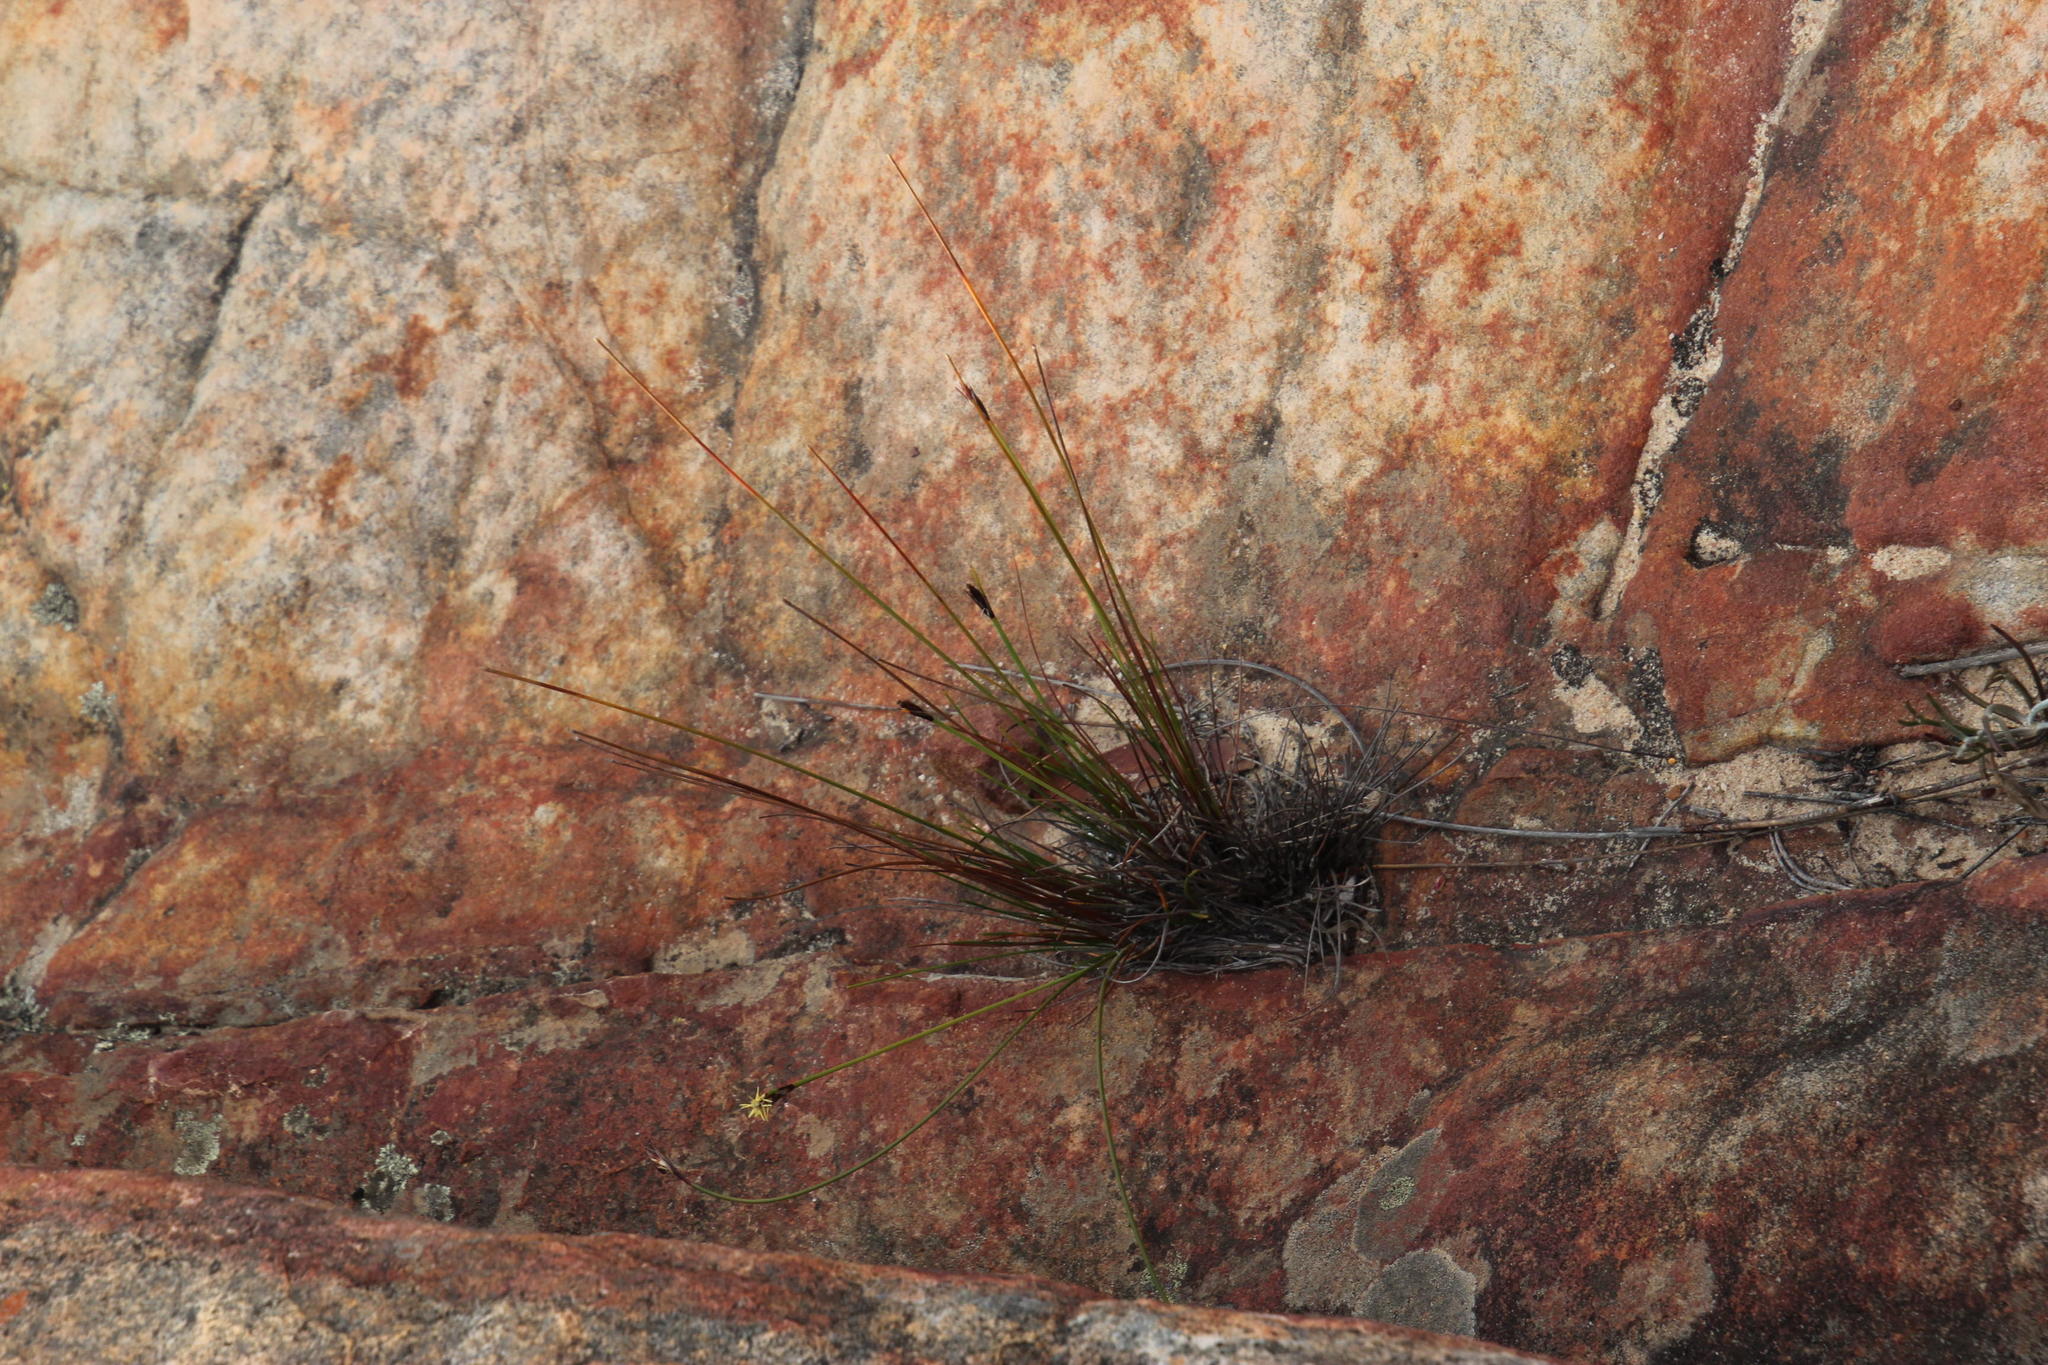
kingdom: Plantae
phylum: Tracheophyta
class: Liliopsida
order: Poales
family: Cyperaceae
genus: Ficinia
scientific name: Ficinia deusta
